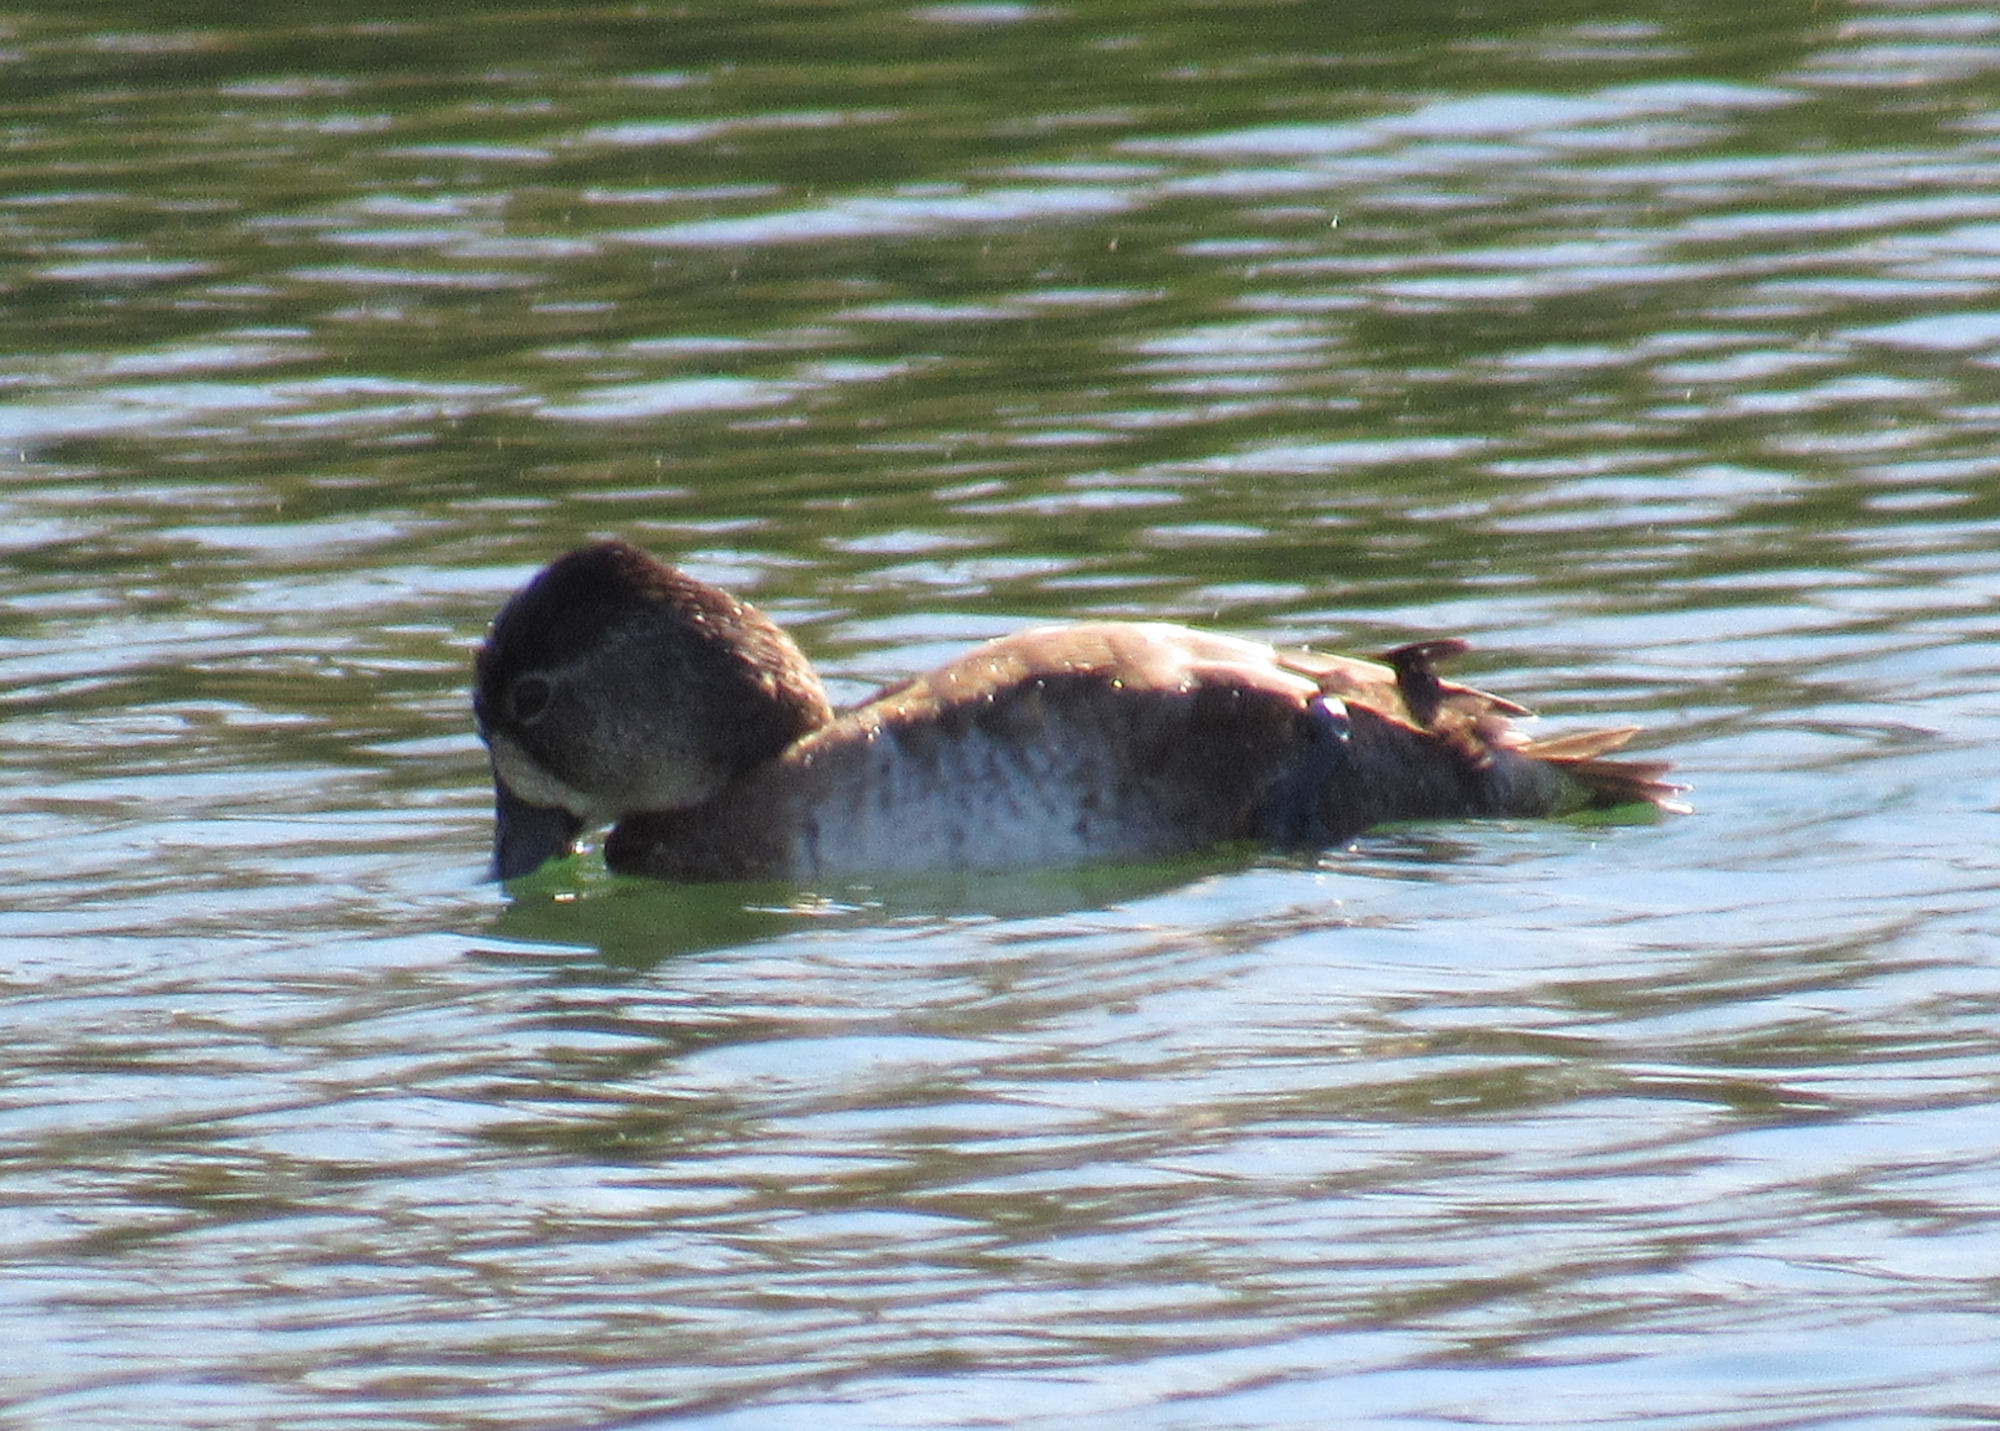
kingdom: Animalia
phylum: Chordata
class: Aves
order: Anseriformes
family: Anatidae
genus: Aythya
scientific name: Aythya collaris
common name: Ring-necked duck
